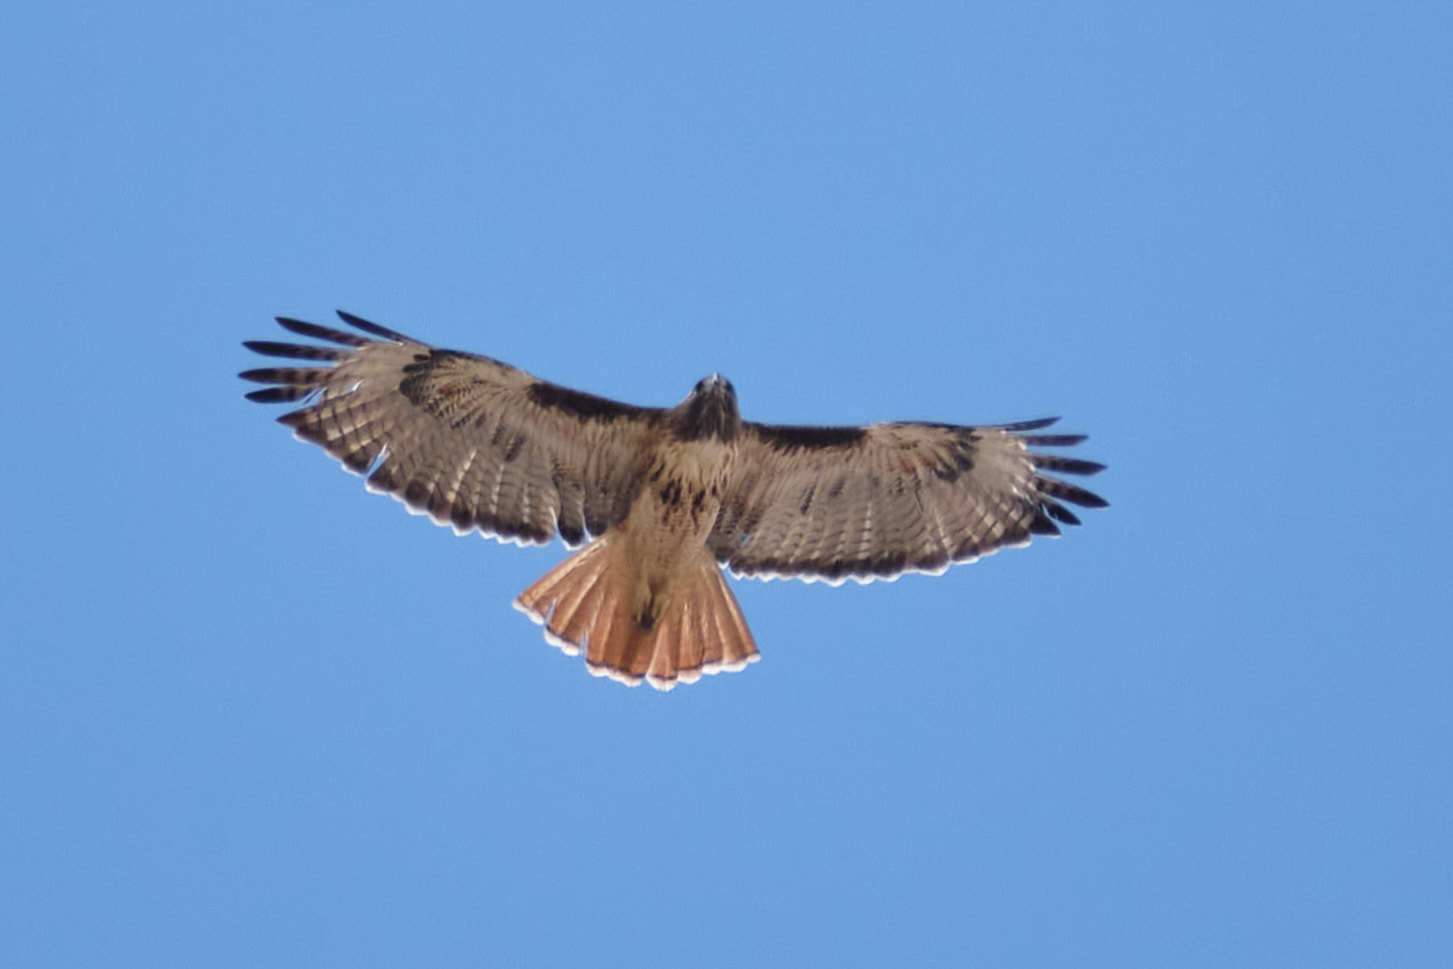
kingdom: Animalia
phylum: Chordata
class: Aves
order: Accipitriformes
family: Accipitridae
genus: Buteo
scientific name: Buteo jamaicensis
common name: Red-tailed hawk
